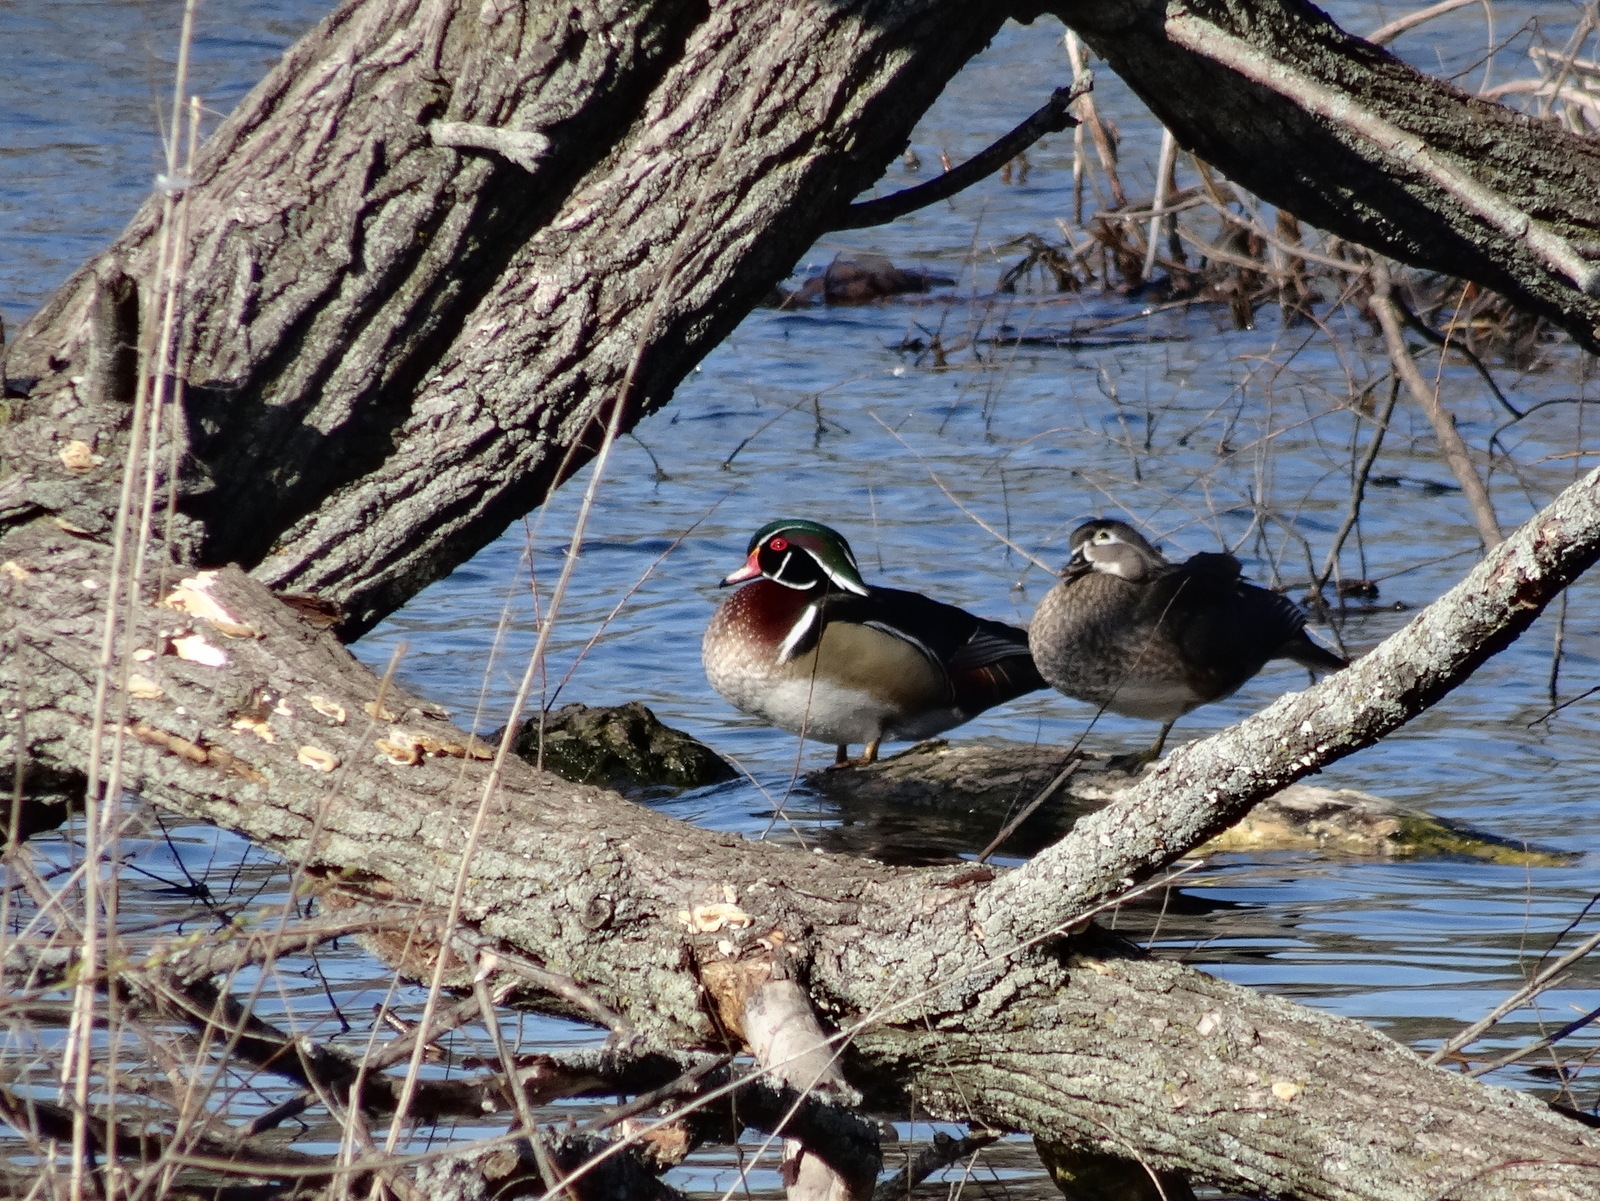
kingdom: Animalia
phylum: Chordata
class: Aves
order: Anseriformes
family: Anatidae
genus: Aix
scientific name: Aix sponsa
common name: Wood duck
